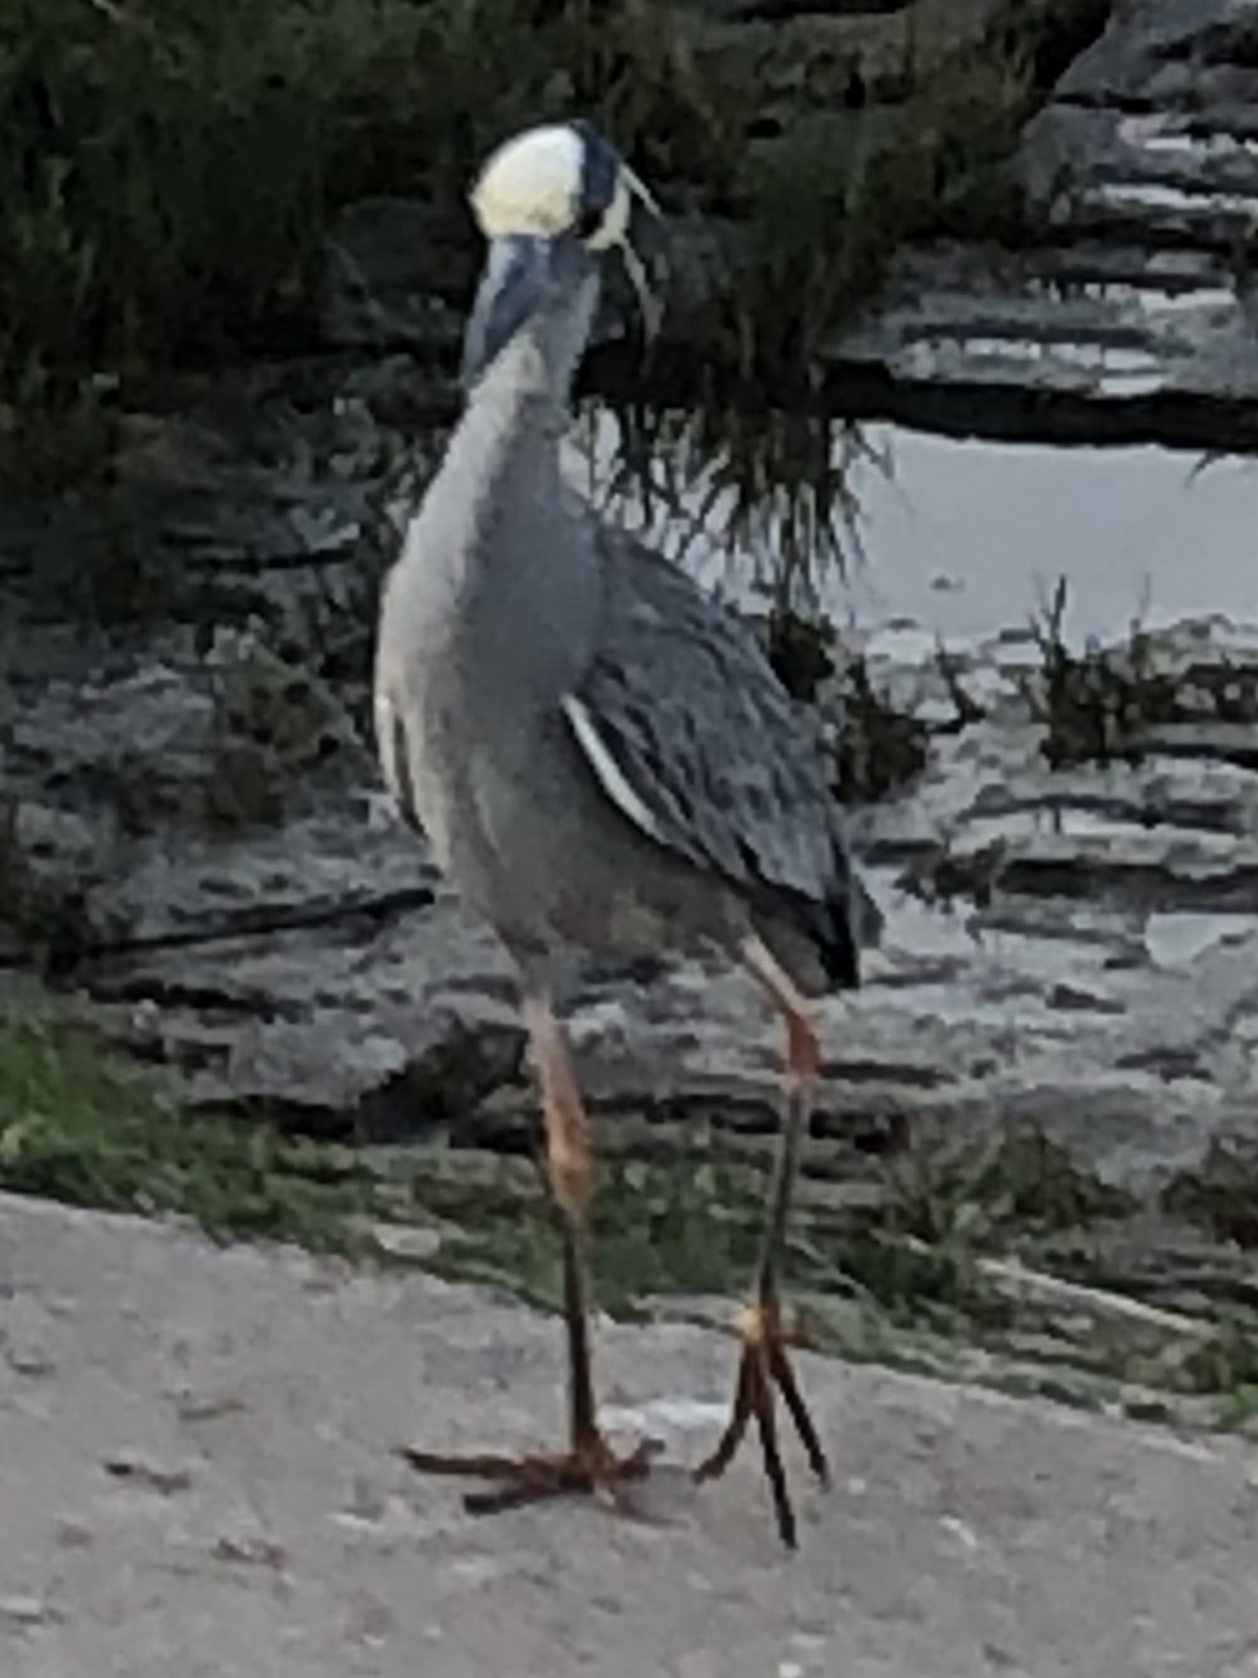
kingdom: Animalia
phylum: Chordata
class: Aves
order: Pelecaniformes
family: Ardeidae
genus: Nyctanassa
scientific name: Nyctanassa violacea
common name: Yellow-crowned night heron
